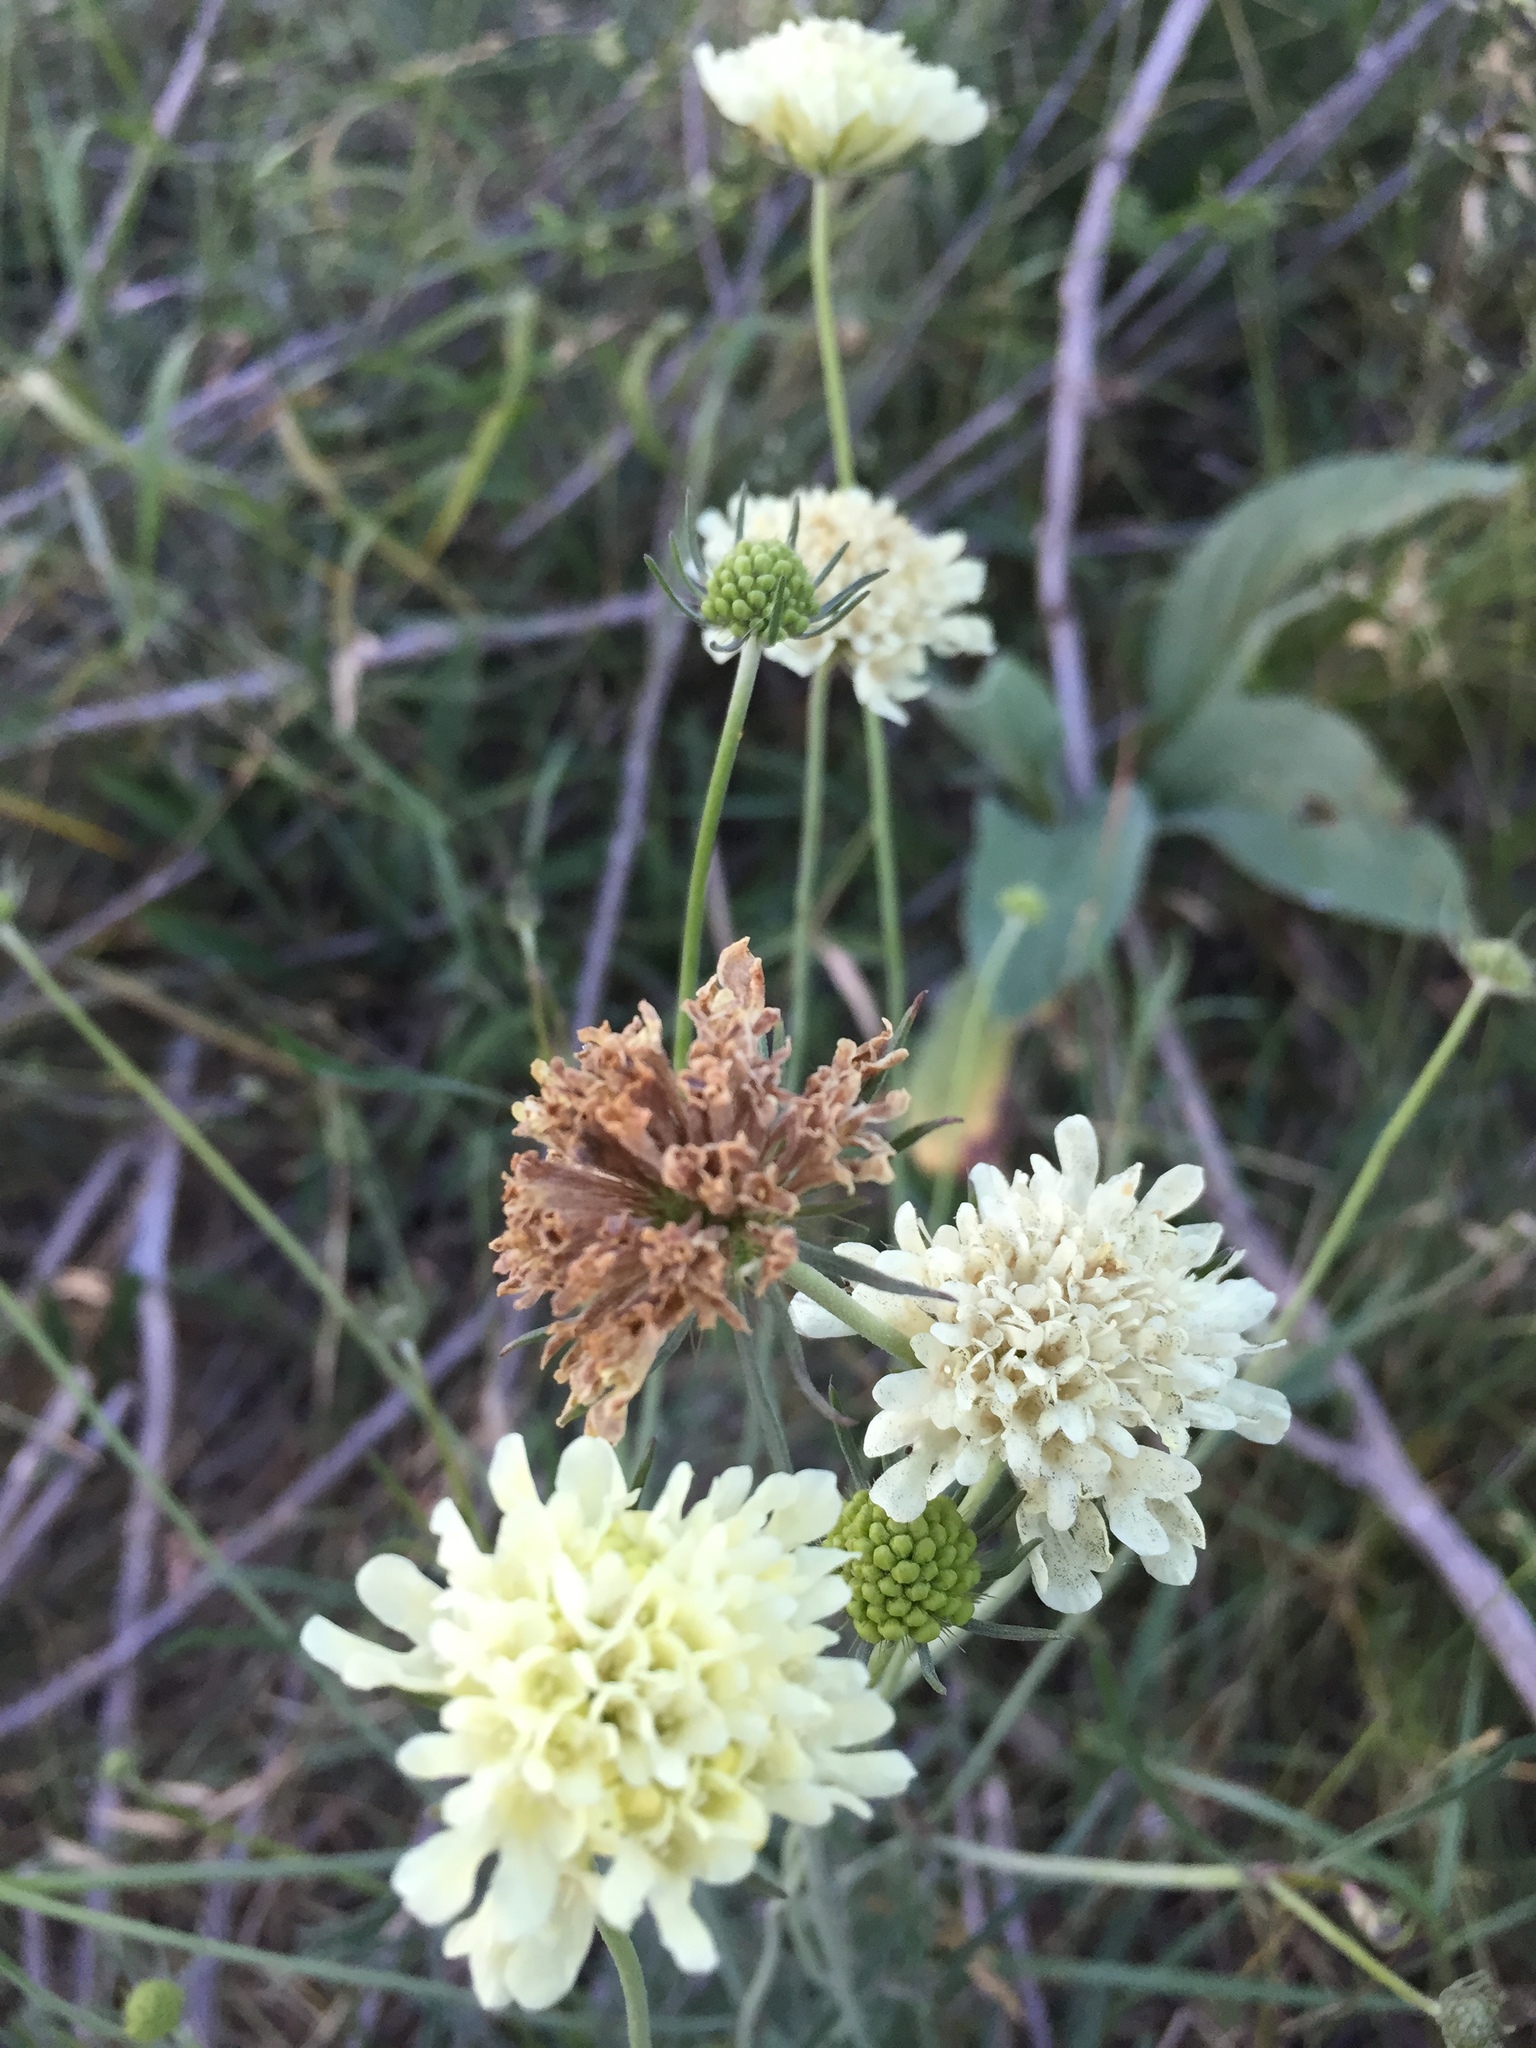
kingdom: Plantae
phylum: Tracheophyta
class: Magnoliopsida
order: Dipsacales
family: Caprifoliaceae
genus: Scabiosa
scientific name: Scabiosa ochroleuca
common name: Cream pincushions
